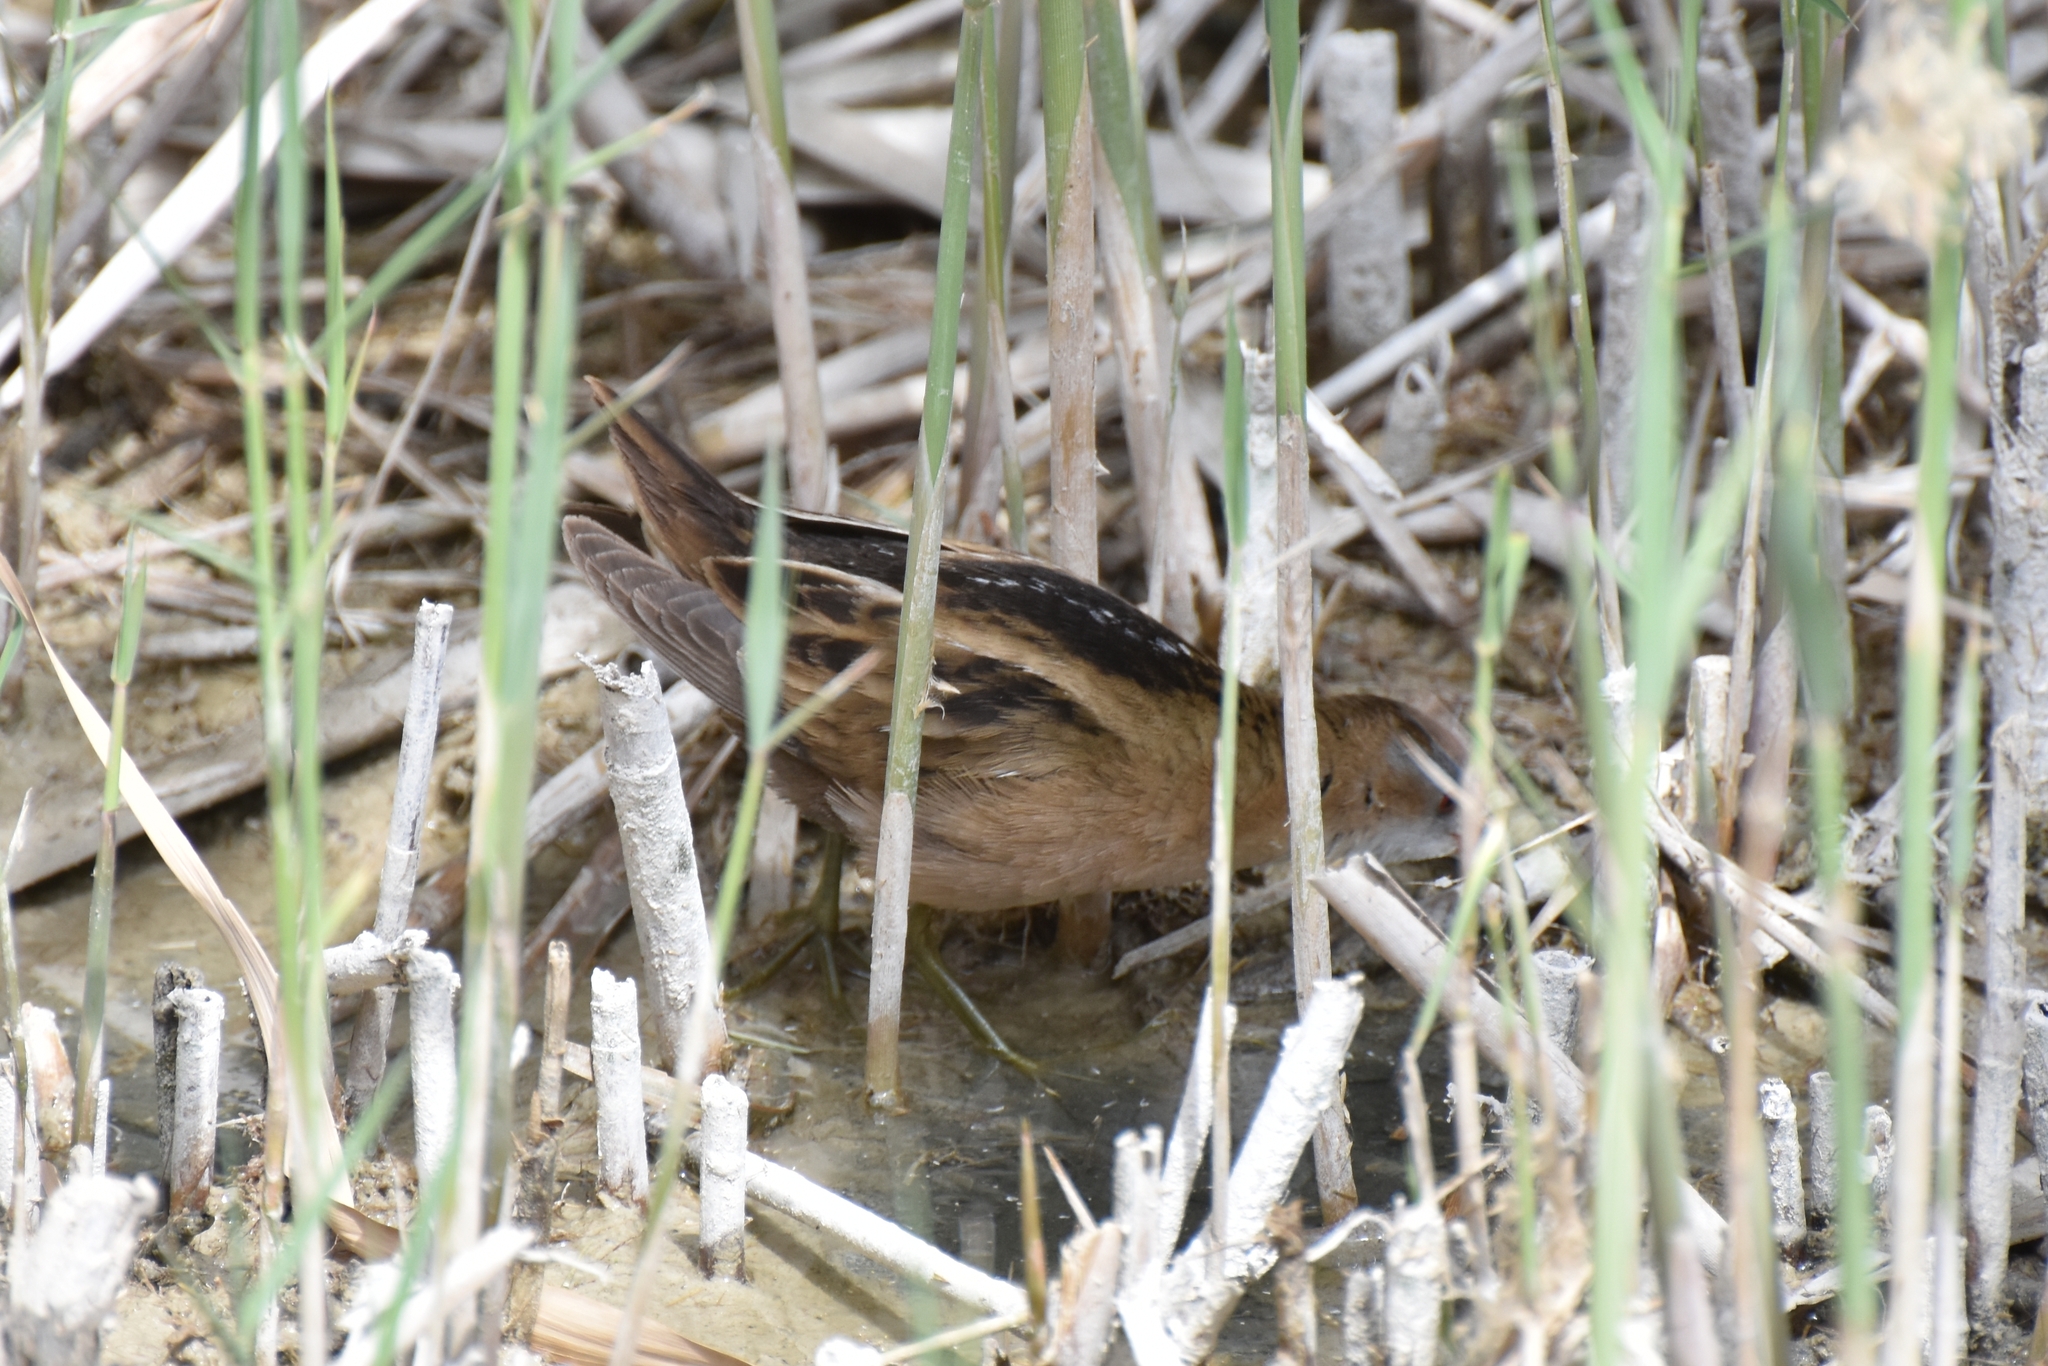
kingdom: Animalia
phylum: Chordata
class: Aves
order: Gruiformes
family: Rallidae
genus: Porzana
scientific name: Porzana parva
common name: Little crake
